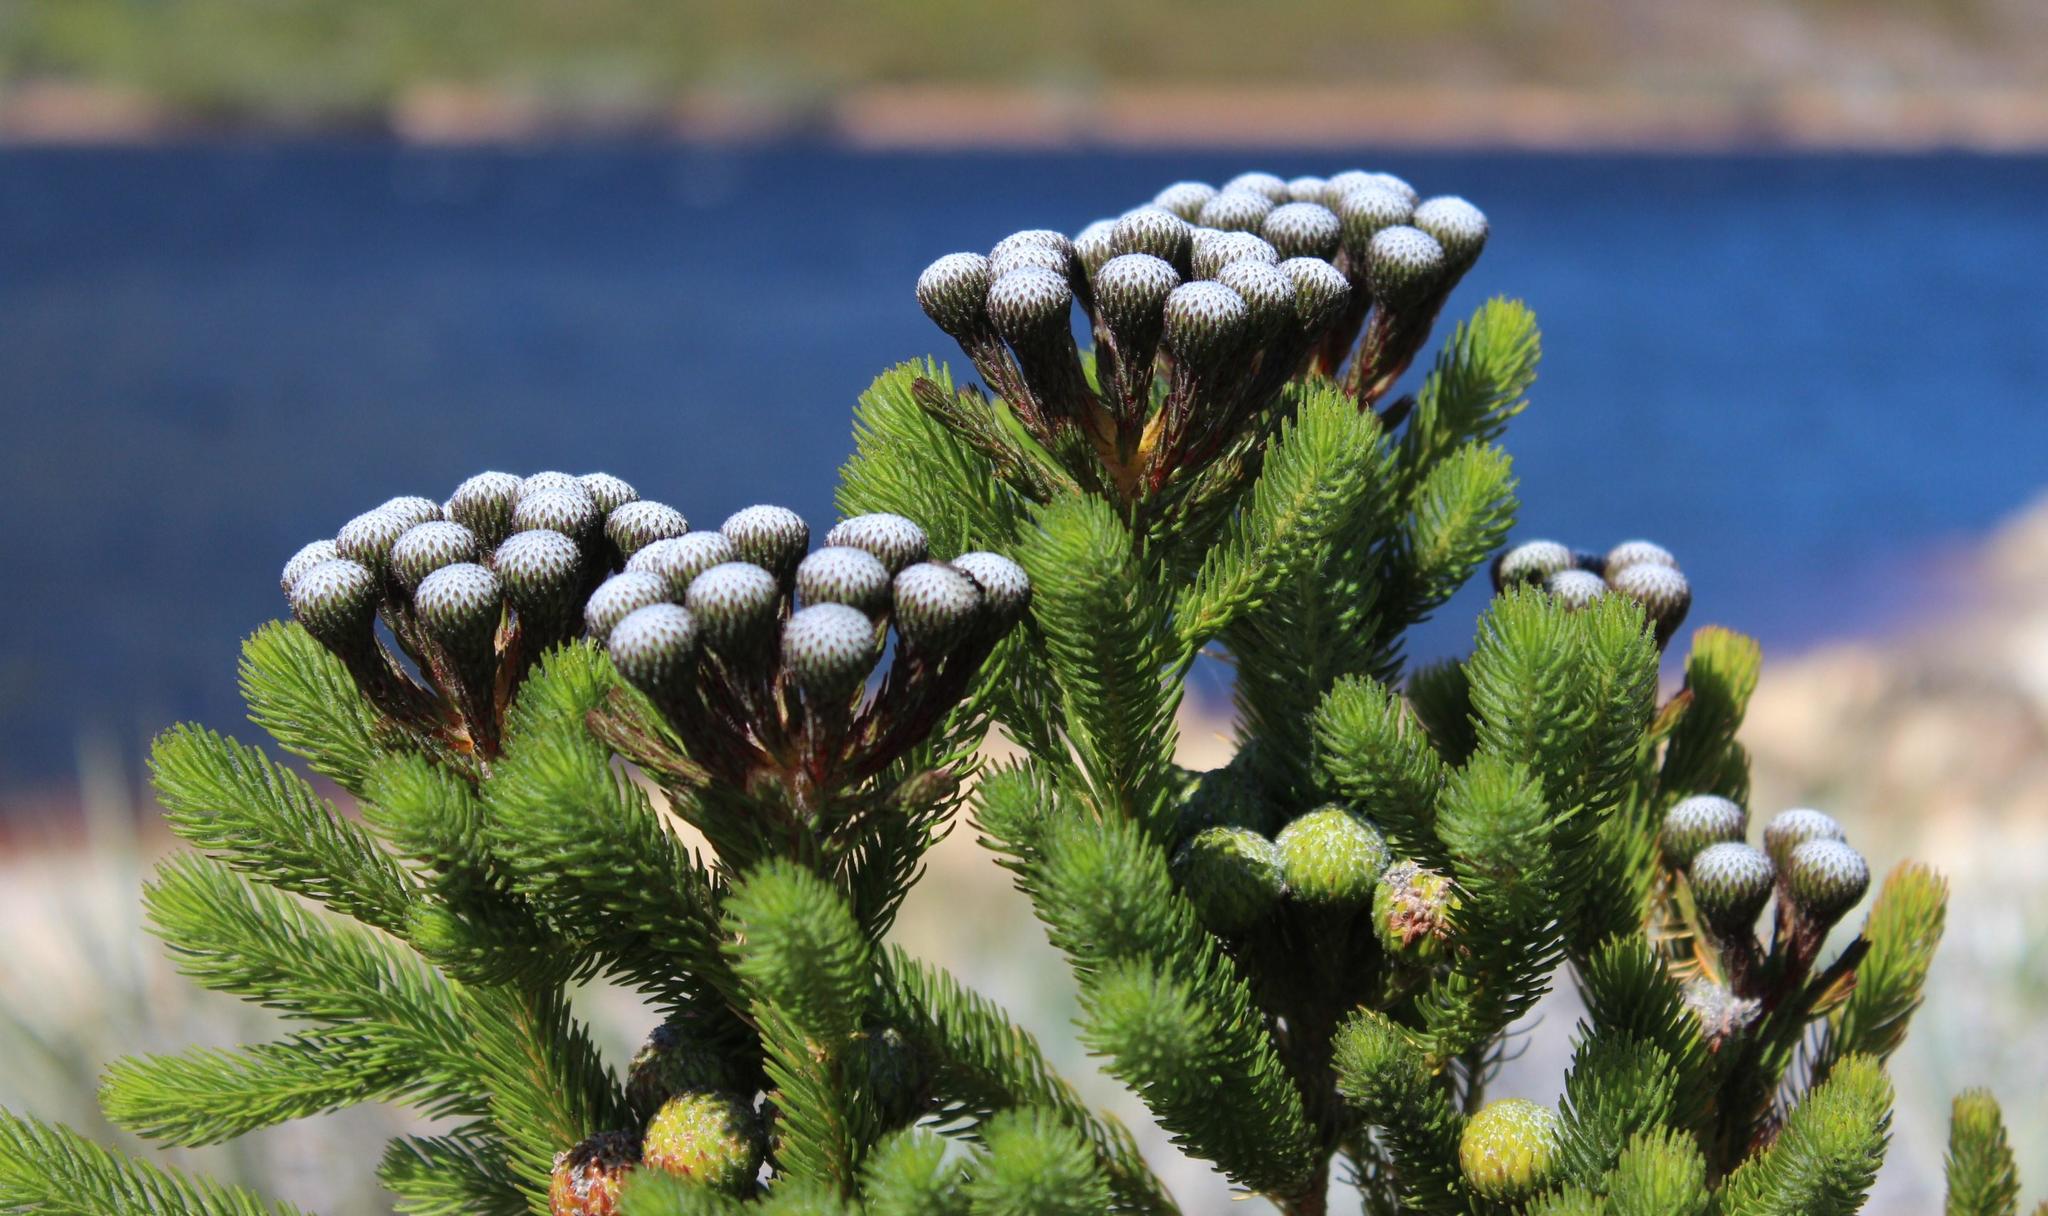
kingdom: Plantae
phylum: Tracheophyta
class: Magnoliopsida
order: Bruniales
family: Bruniaceae
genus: Berzelia
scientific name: Berzelia albiflora
